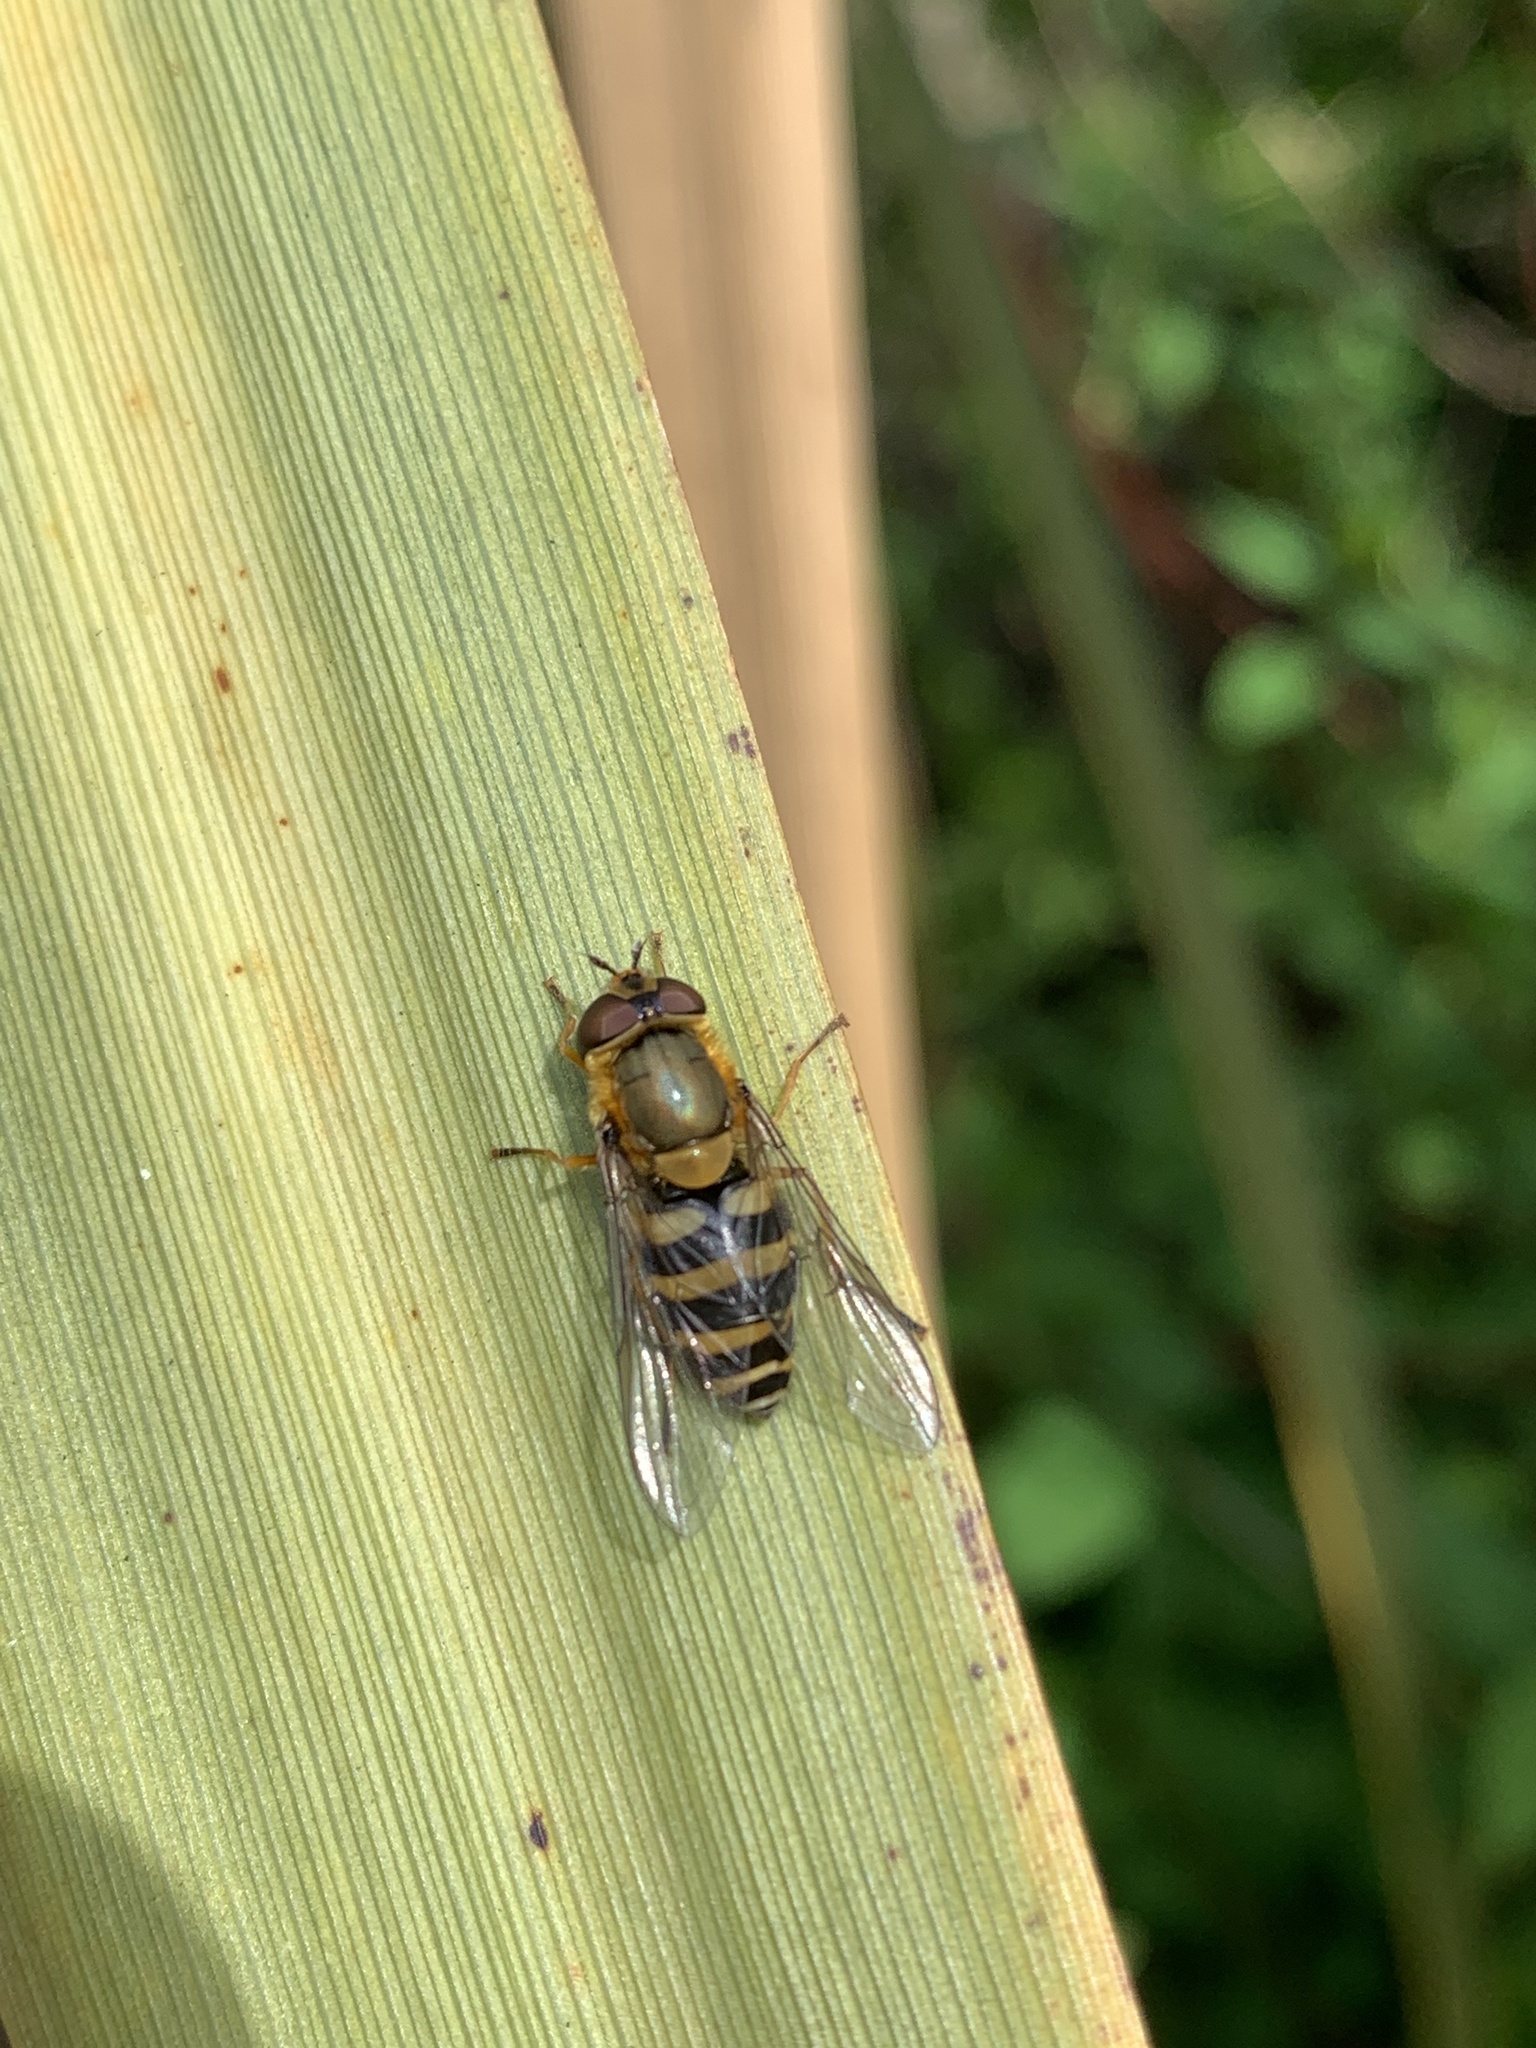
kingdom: Animalia
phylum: Arthropoda
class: Insecta
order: Diptera
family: Syrphidae
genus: Syrphus
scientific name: Syrphus
